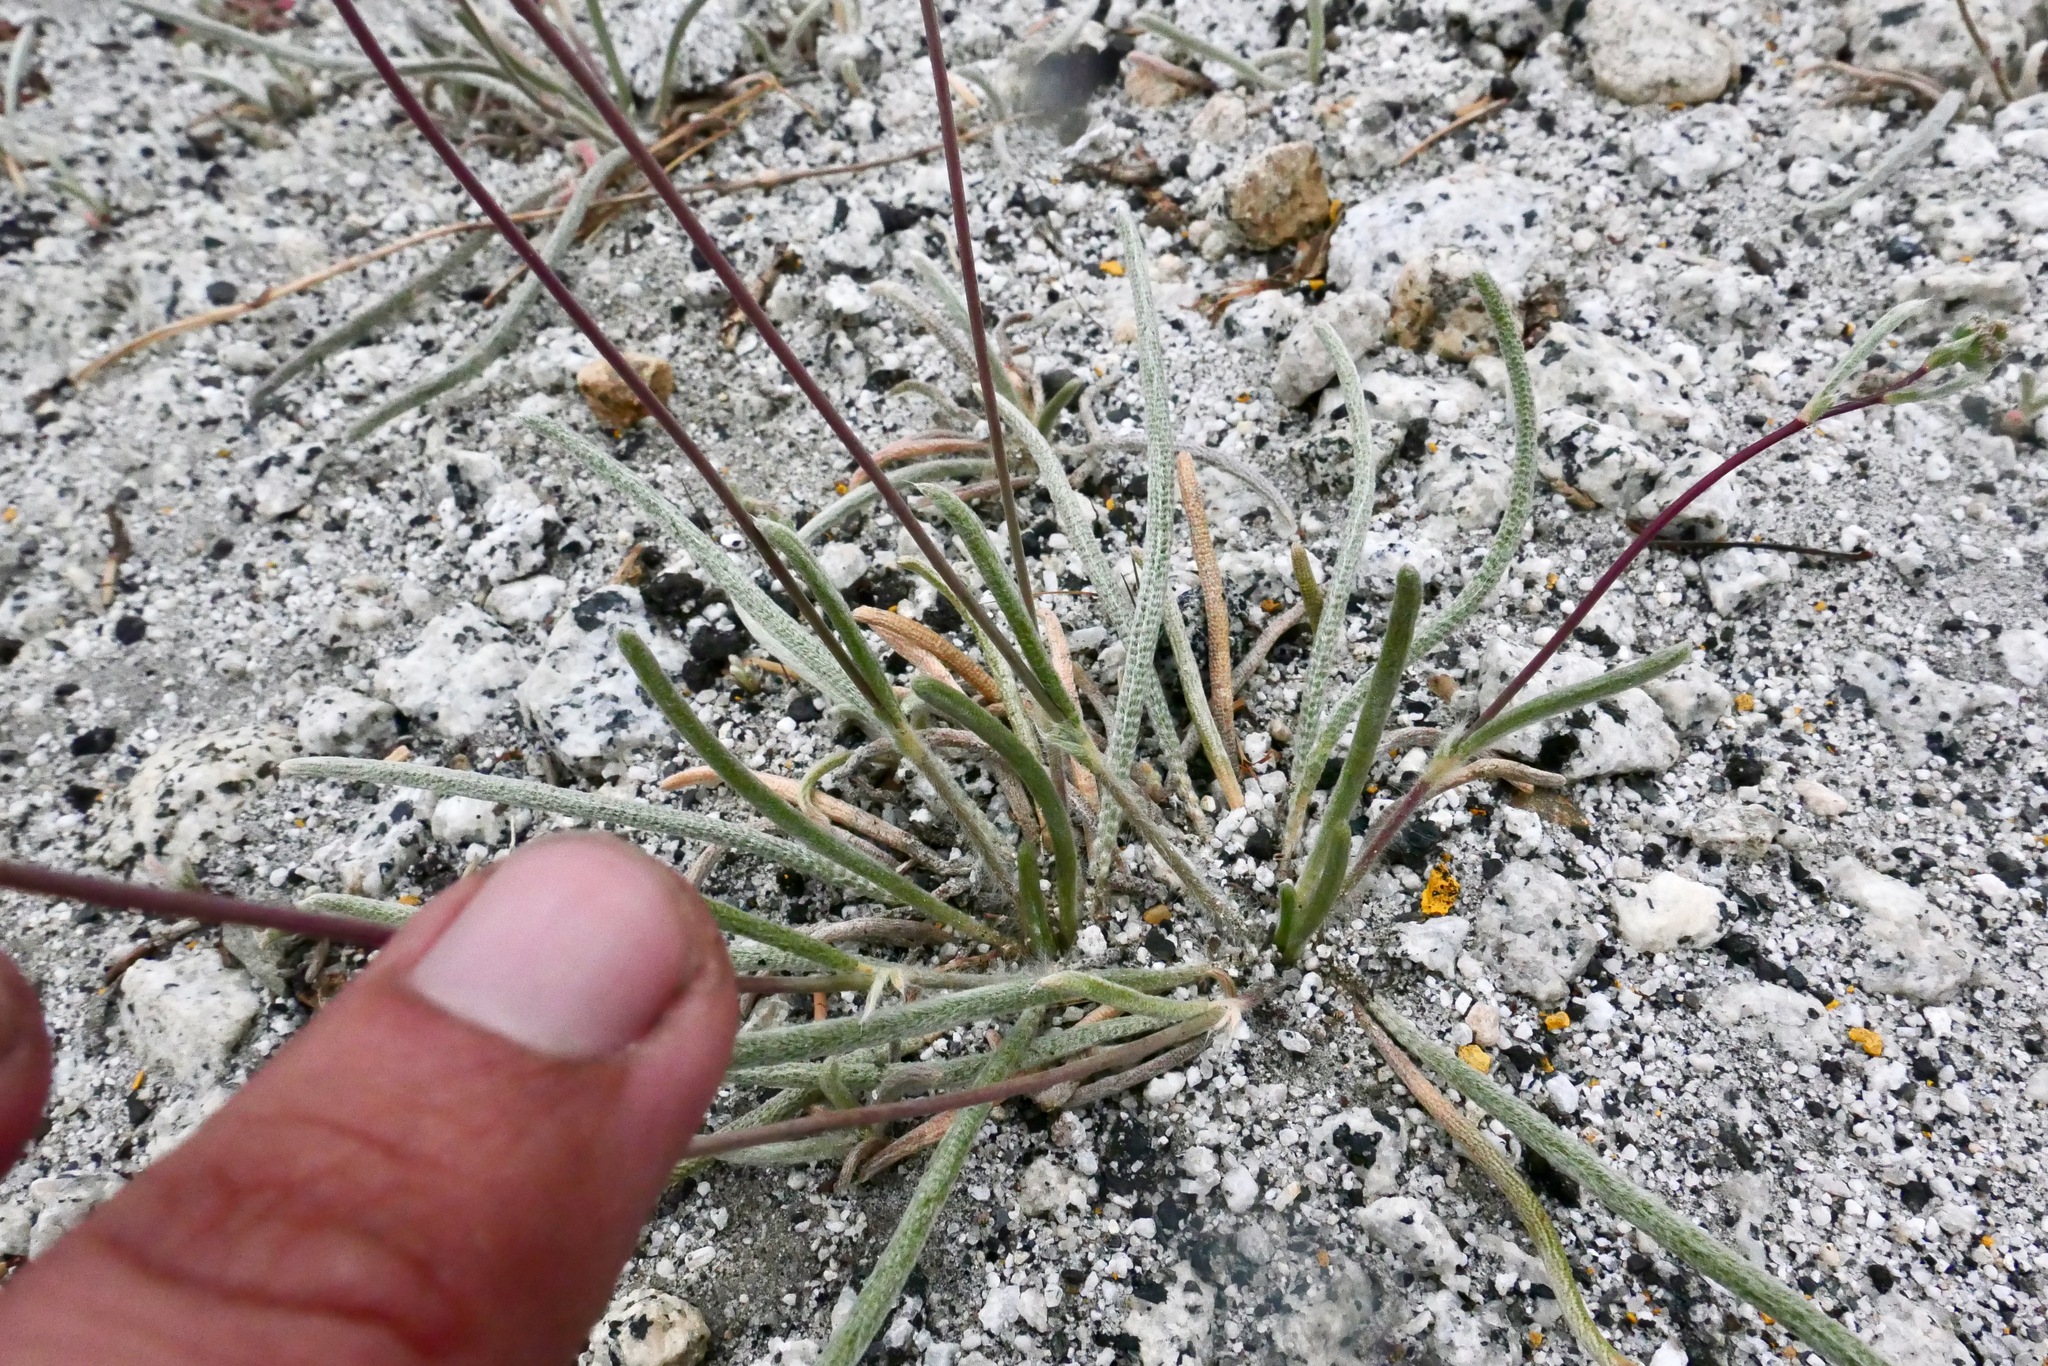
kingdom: Plantae
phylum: Tracheophyta
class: Magnoliopsida
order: Rosales
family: Rosaceae
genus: Potentilla
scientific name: Potentilla santolinoides
